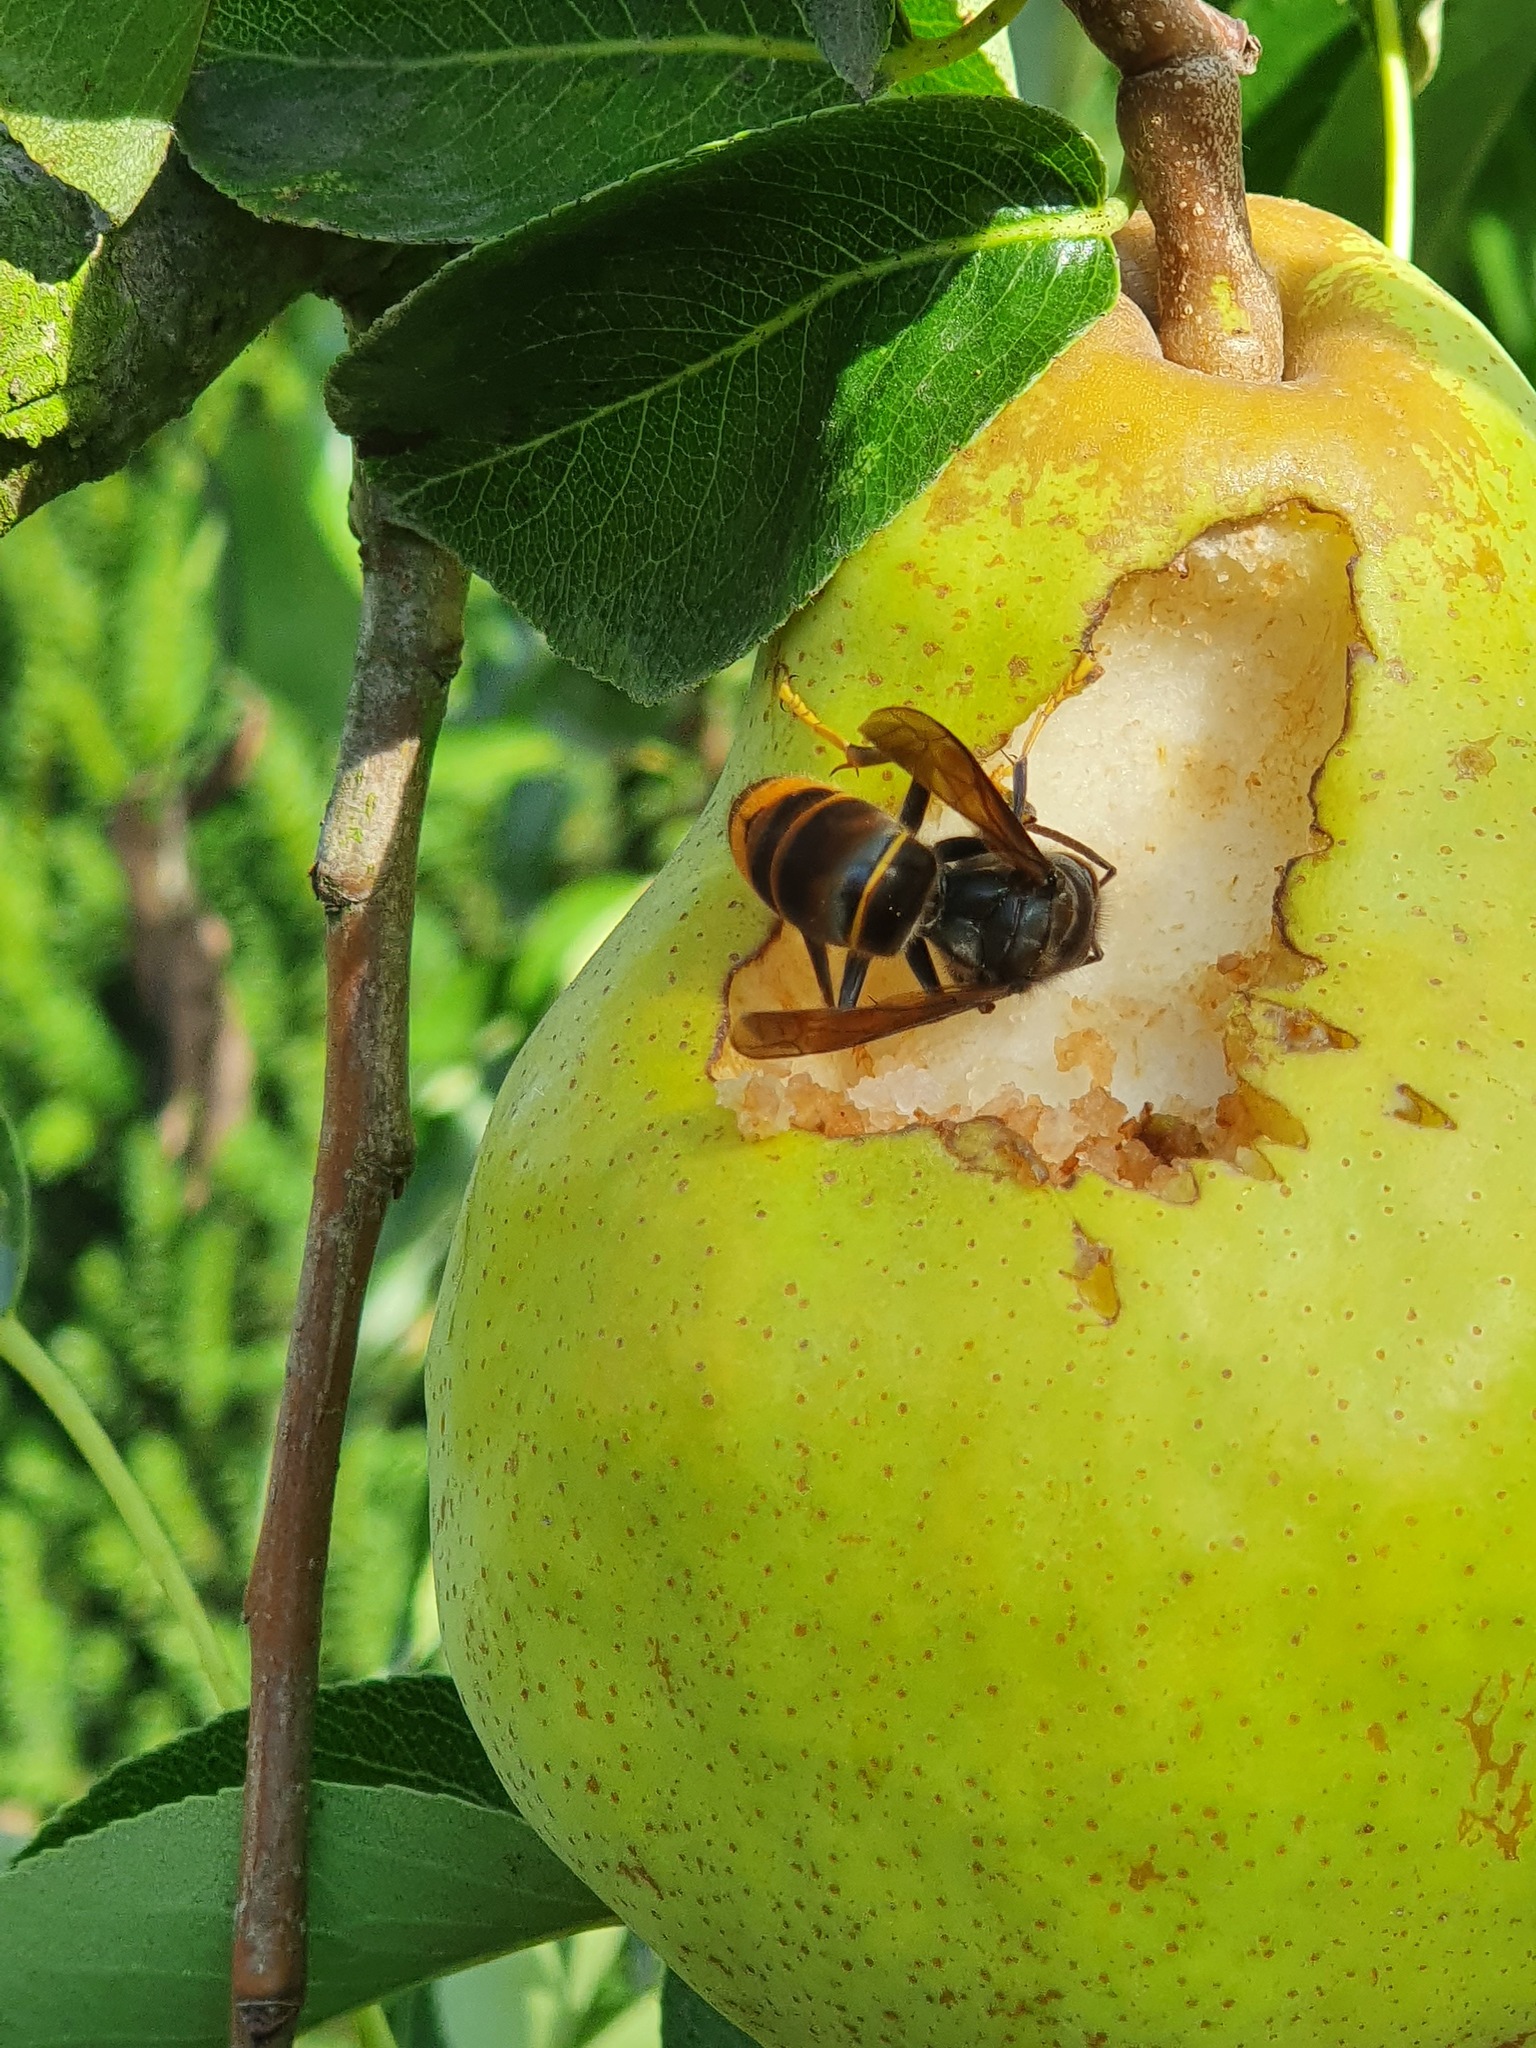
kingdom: Animalia
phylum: Arthropoda
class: Insecta
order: Hymenoptera
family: Vespidae
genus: Vespa
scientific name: Vespa velutina
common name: Asian hornet
